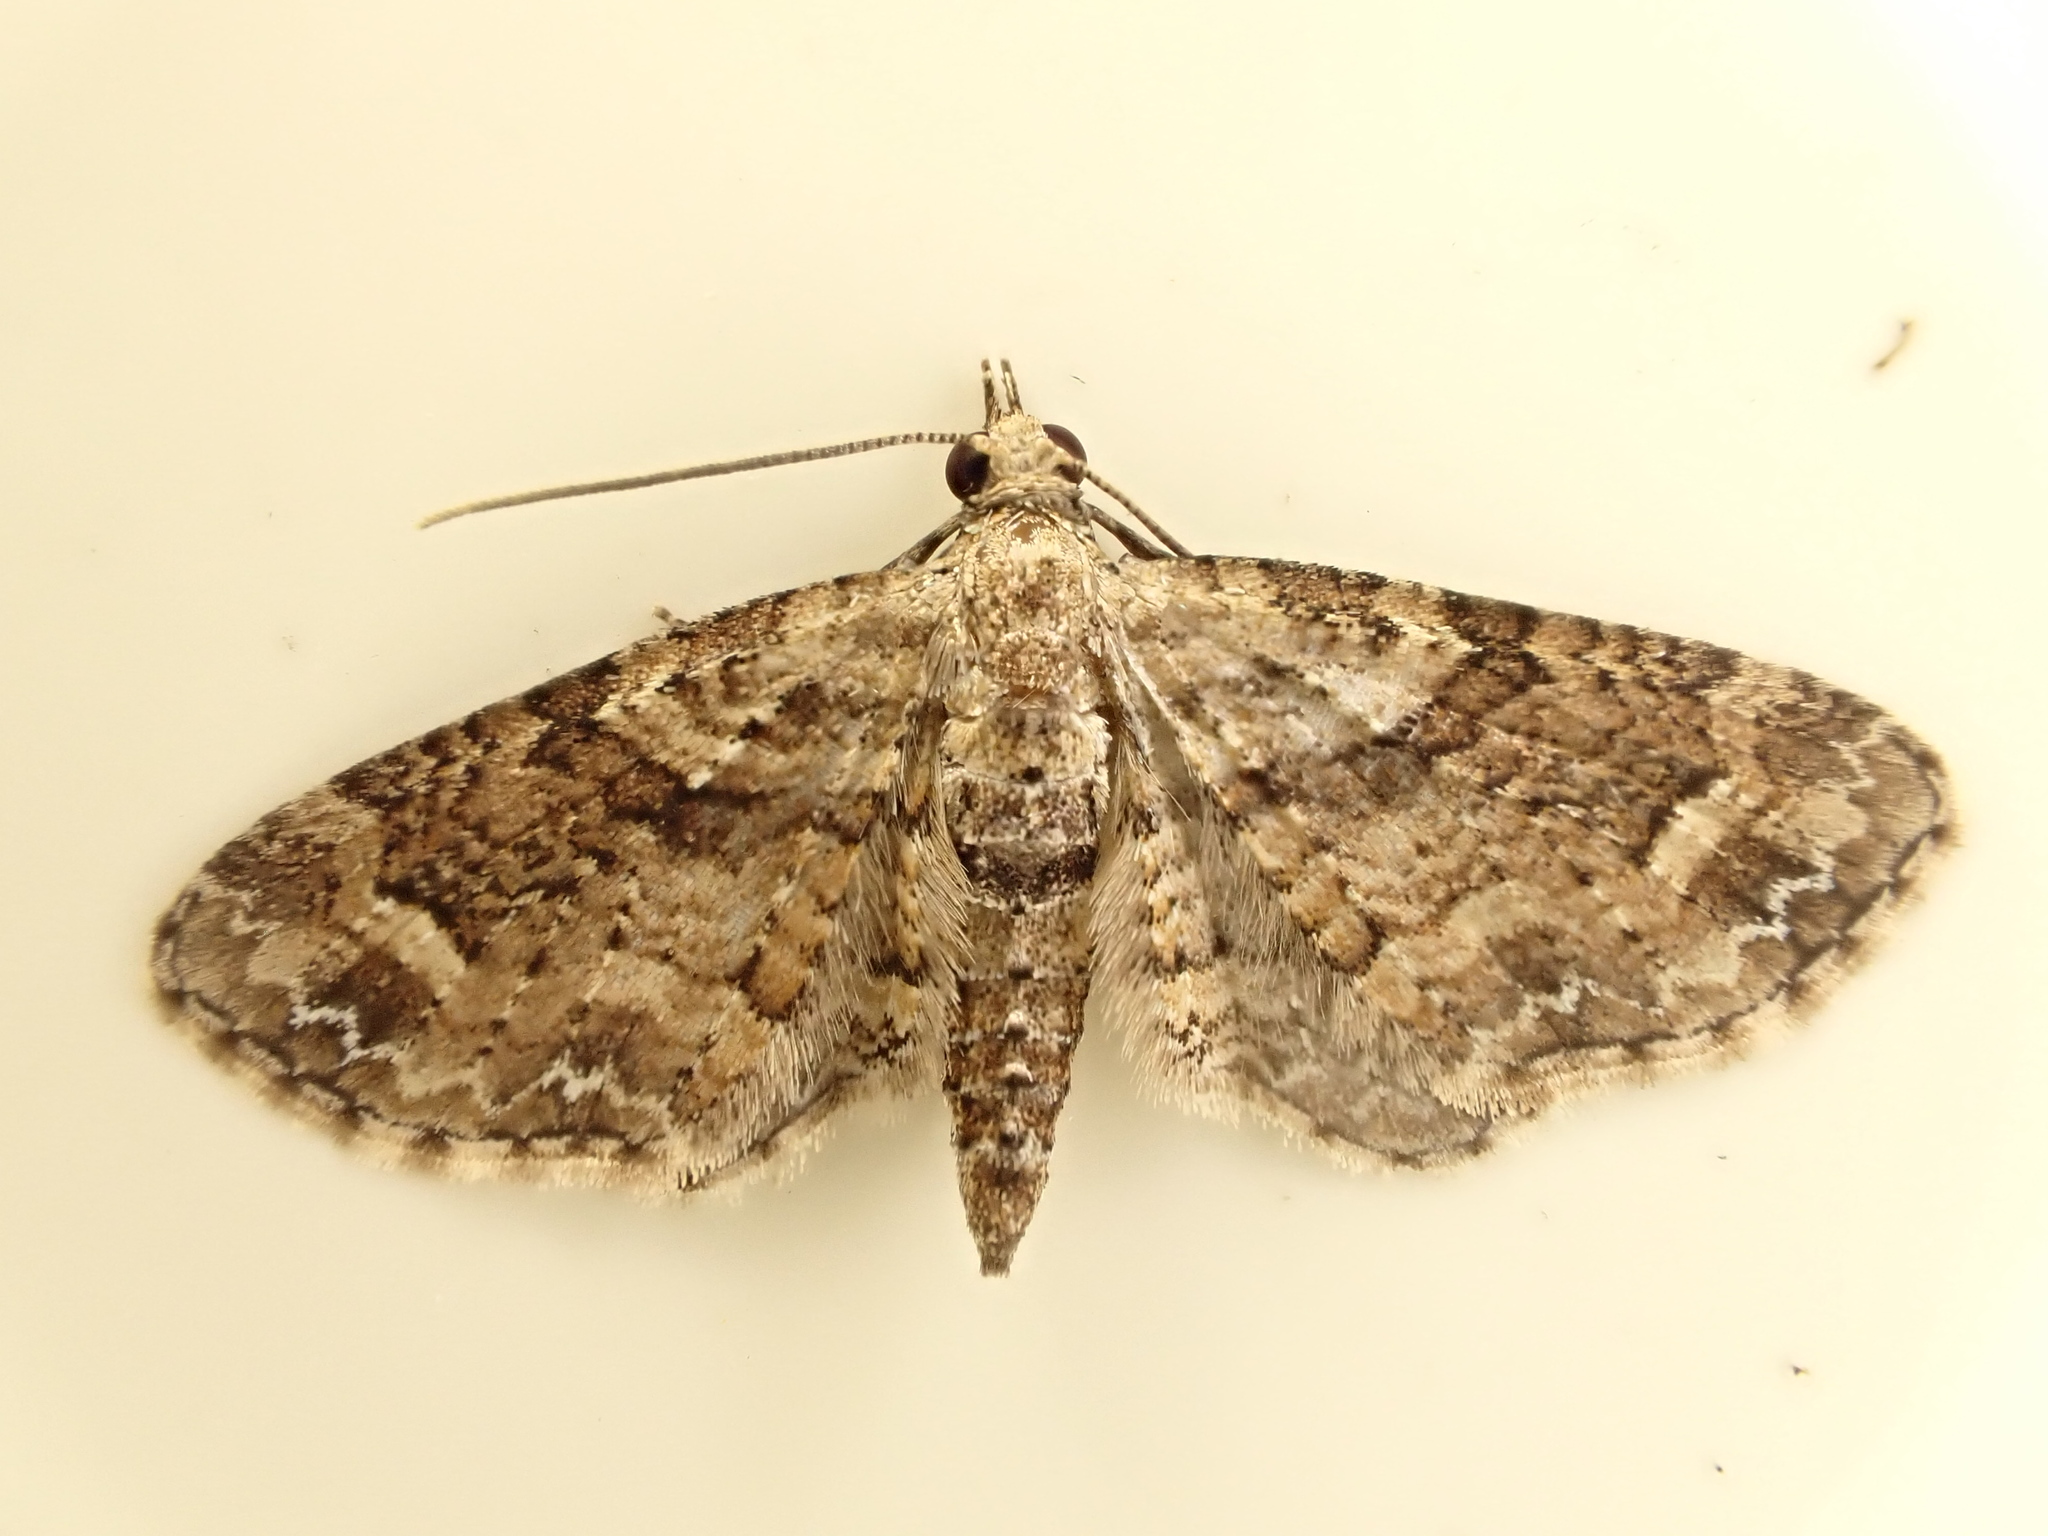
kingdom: Animalia
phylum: Arthropoda
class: Insecta
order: Lepidoptera
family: Geometridae
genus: Idaea
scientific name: Idaea mutanda
